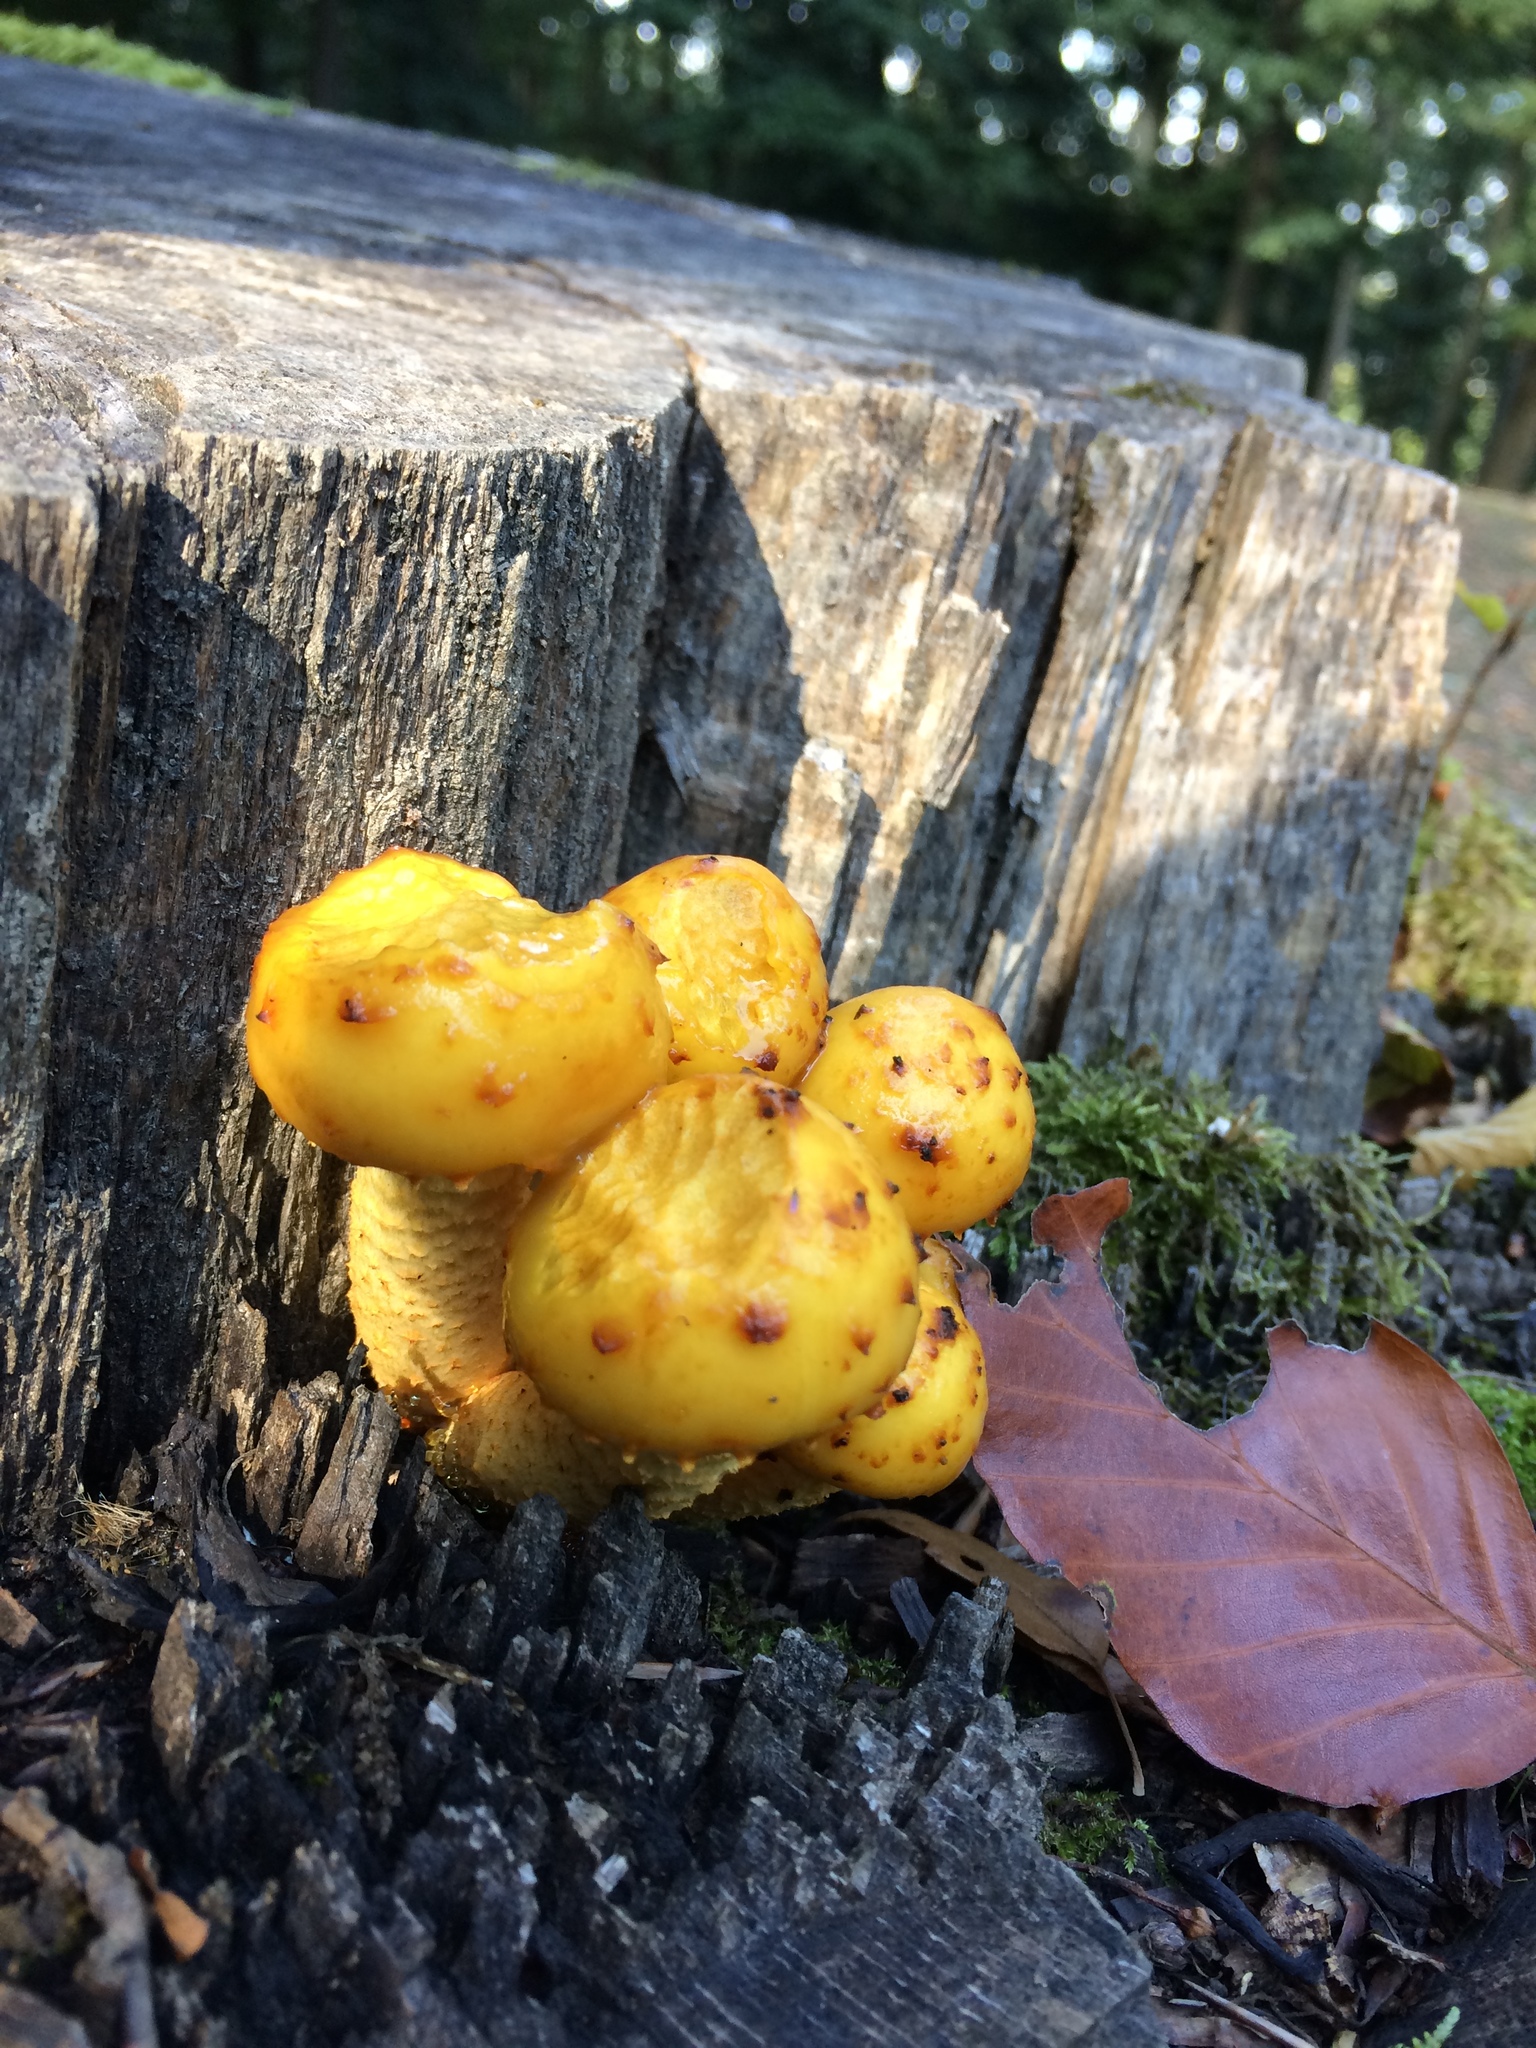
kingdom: Fungi
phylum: Basidiomycota
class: Agaricomycetes
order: Agaricales
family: Strophariaceae
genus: Pholiota
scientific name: Pholiota aurivella
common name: Golden scalycap
